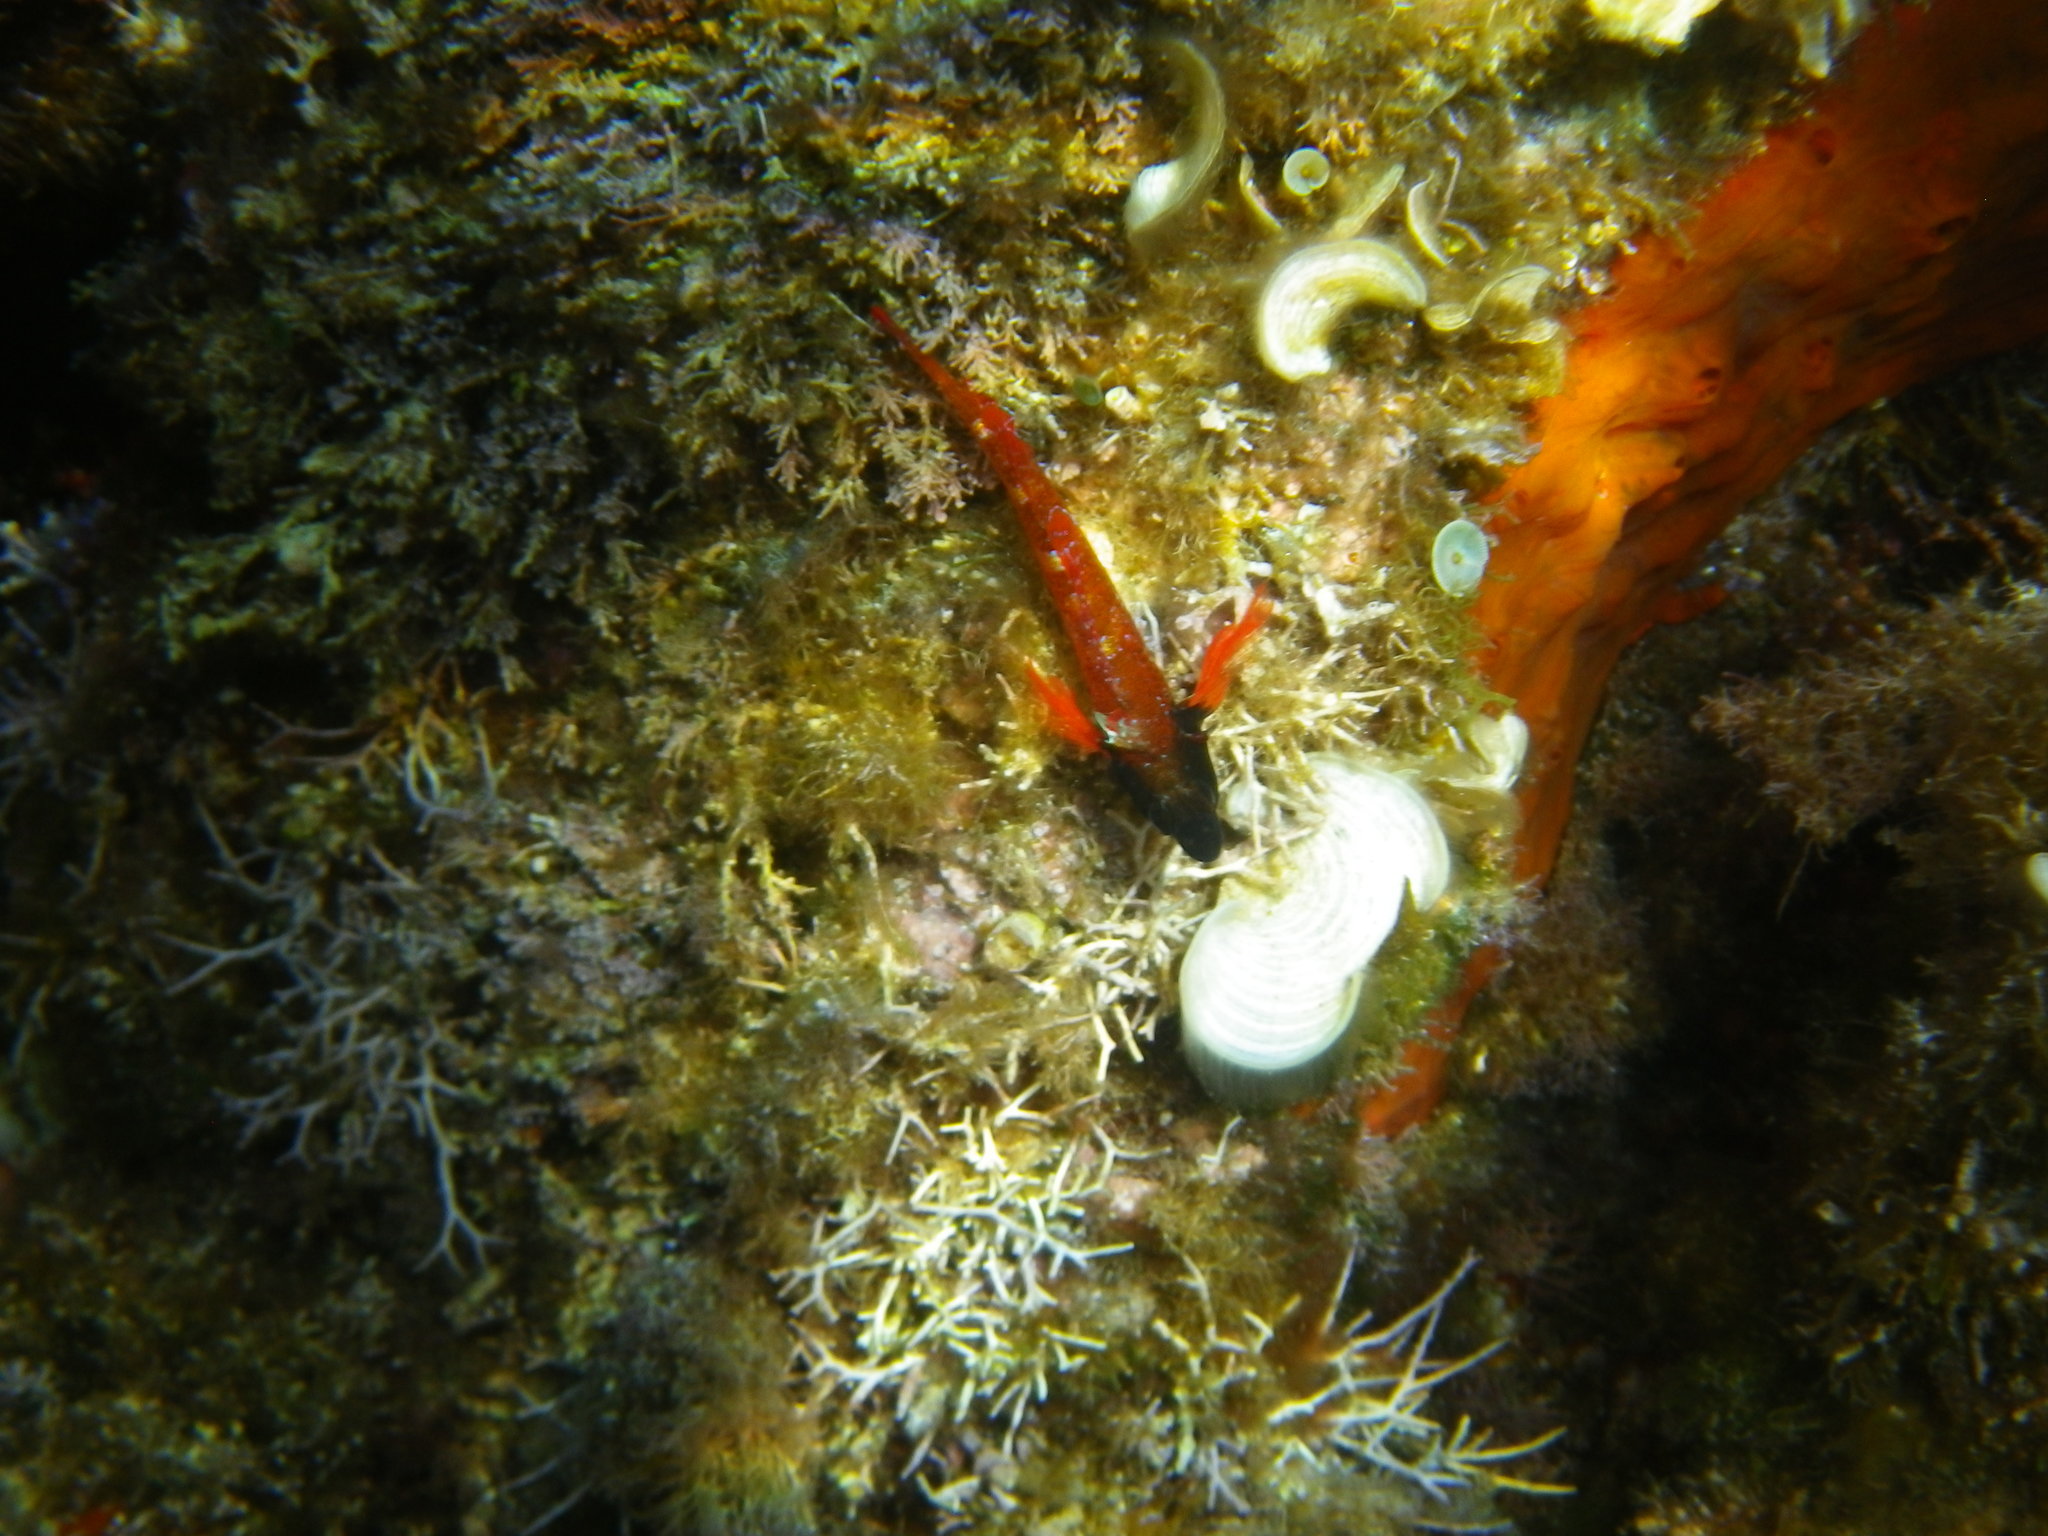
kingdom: Animalia
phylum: Chordata
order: Perciformes
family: Tripterygiidae
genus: Tripterygion
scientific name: Tripterygion tripteronotum
